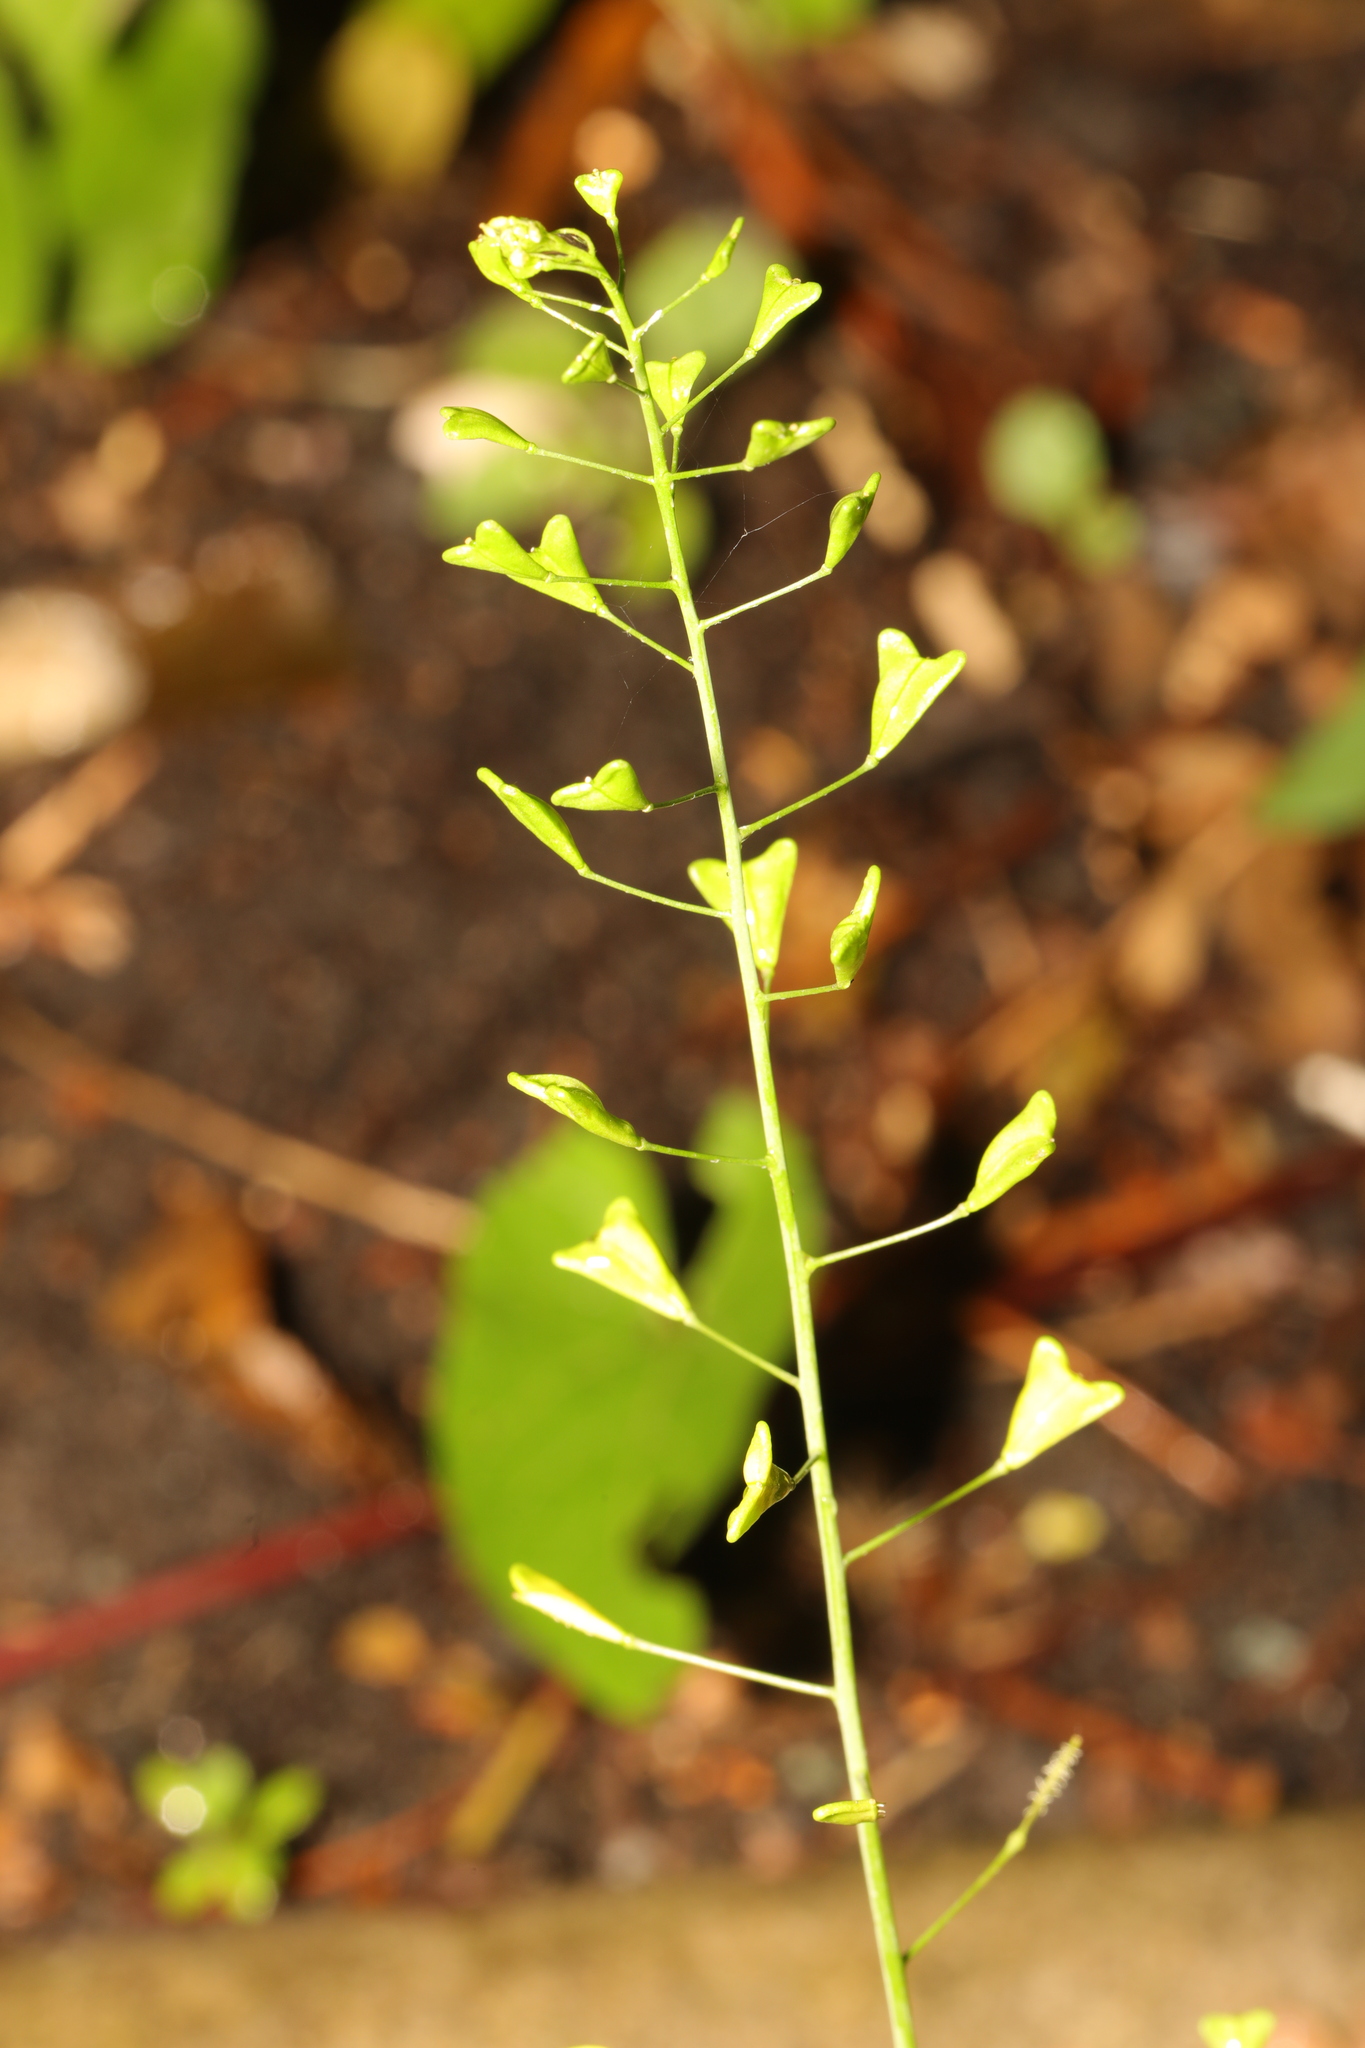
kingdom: Plantae
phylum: Tracheophyta
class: Magnoliopsida
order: Brassicales
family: Brassicaceae
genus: Capsella
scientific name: Capsella bursa-pastoris
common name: Shepherd's purse
